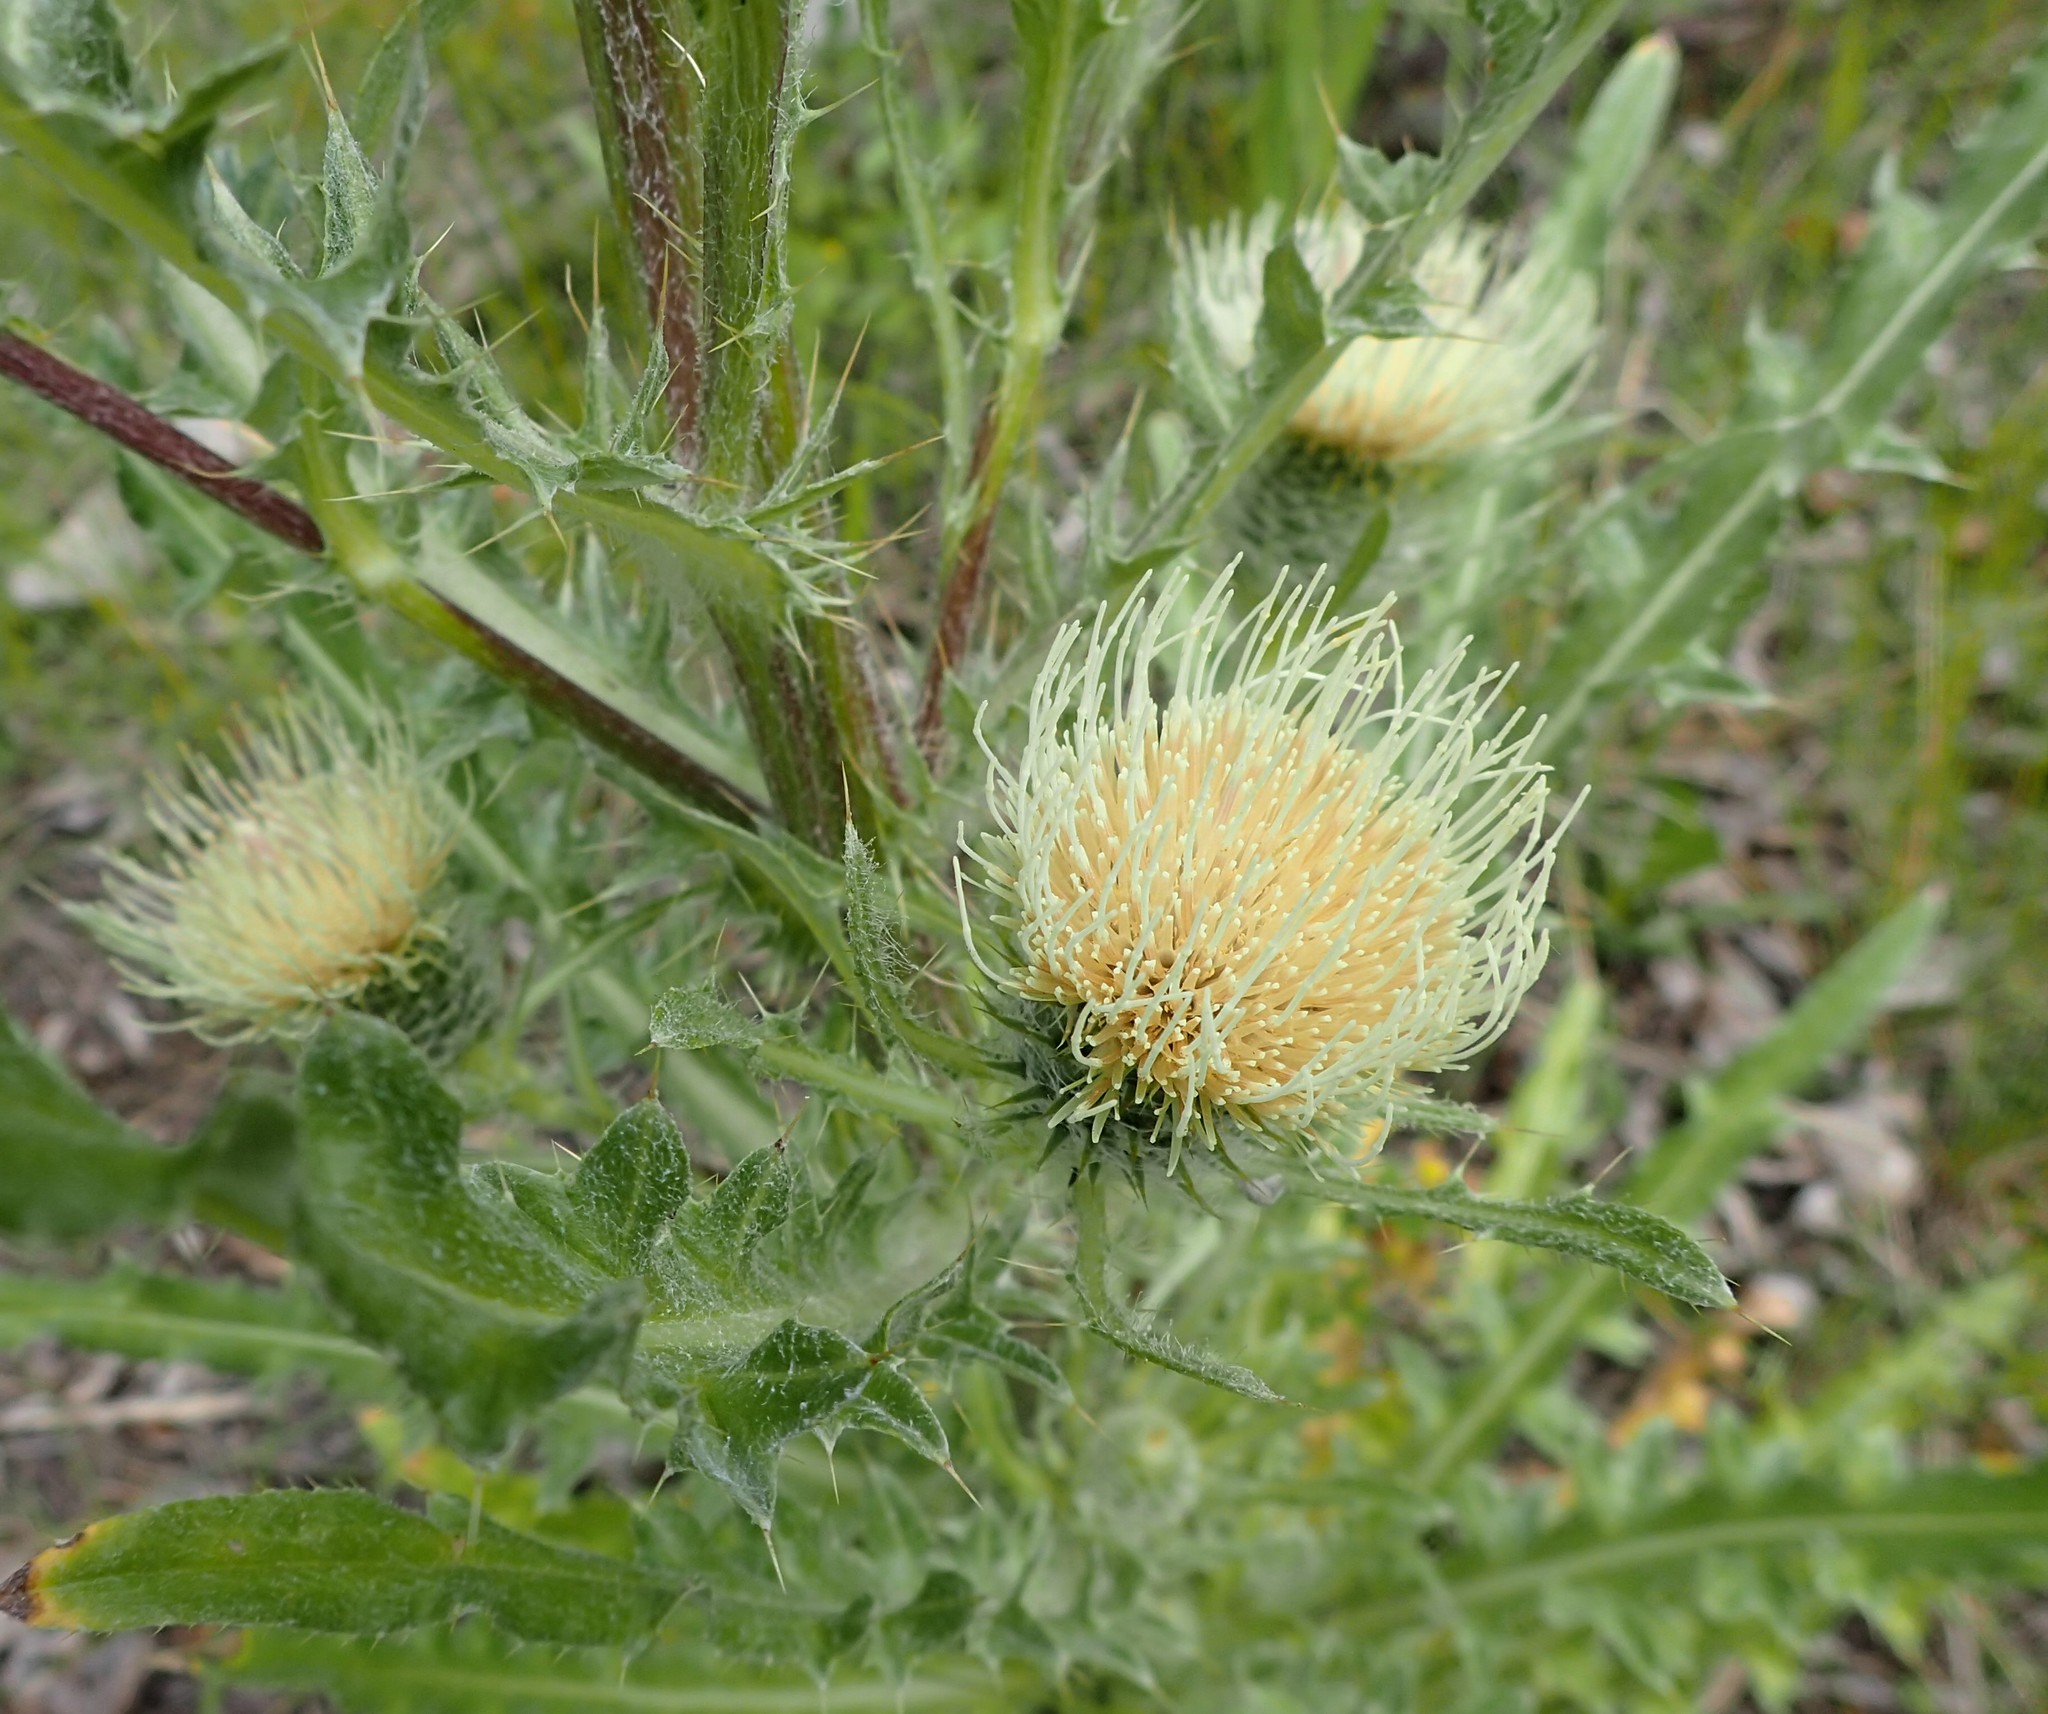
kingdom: Plantae
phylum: Tracheophyta
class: Magnoliopsida
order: Asterales
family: Asteraceae
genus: Cirsium
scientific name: Cirsium hookerianum
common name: Hooker's thistle
